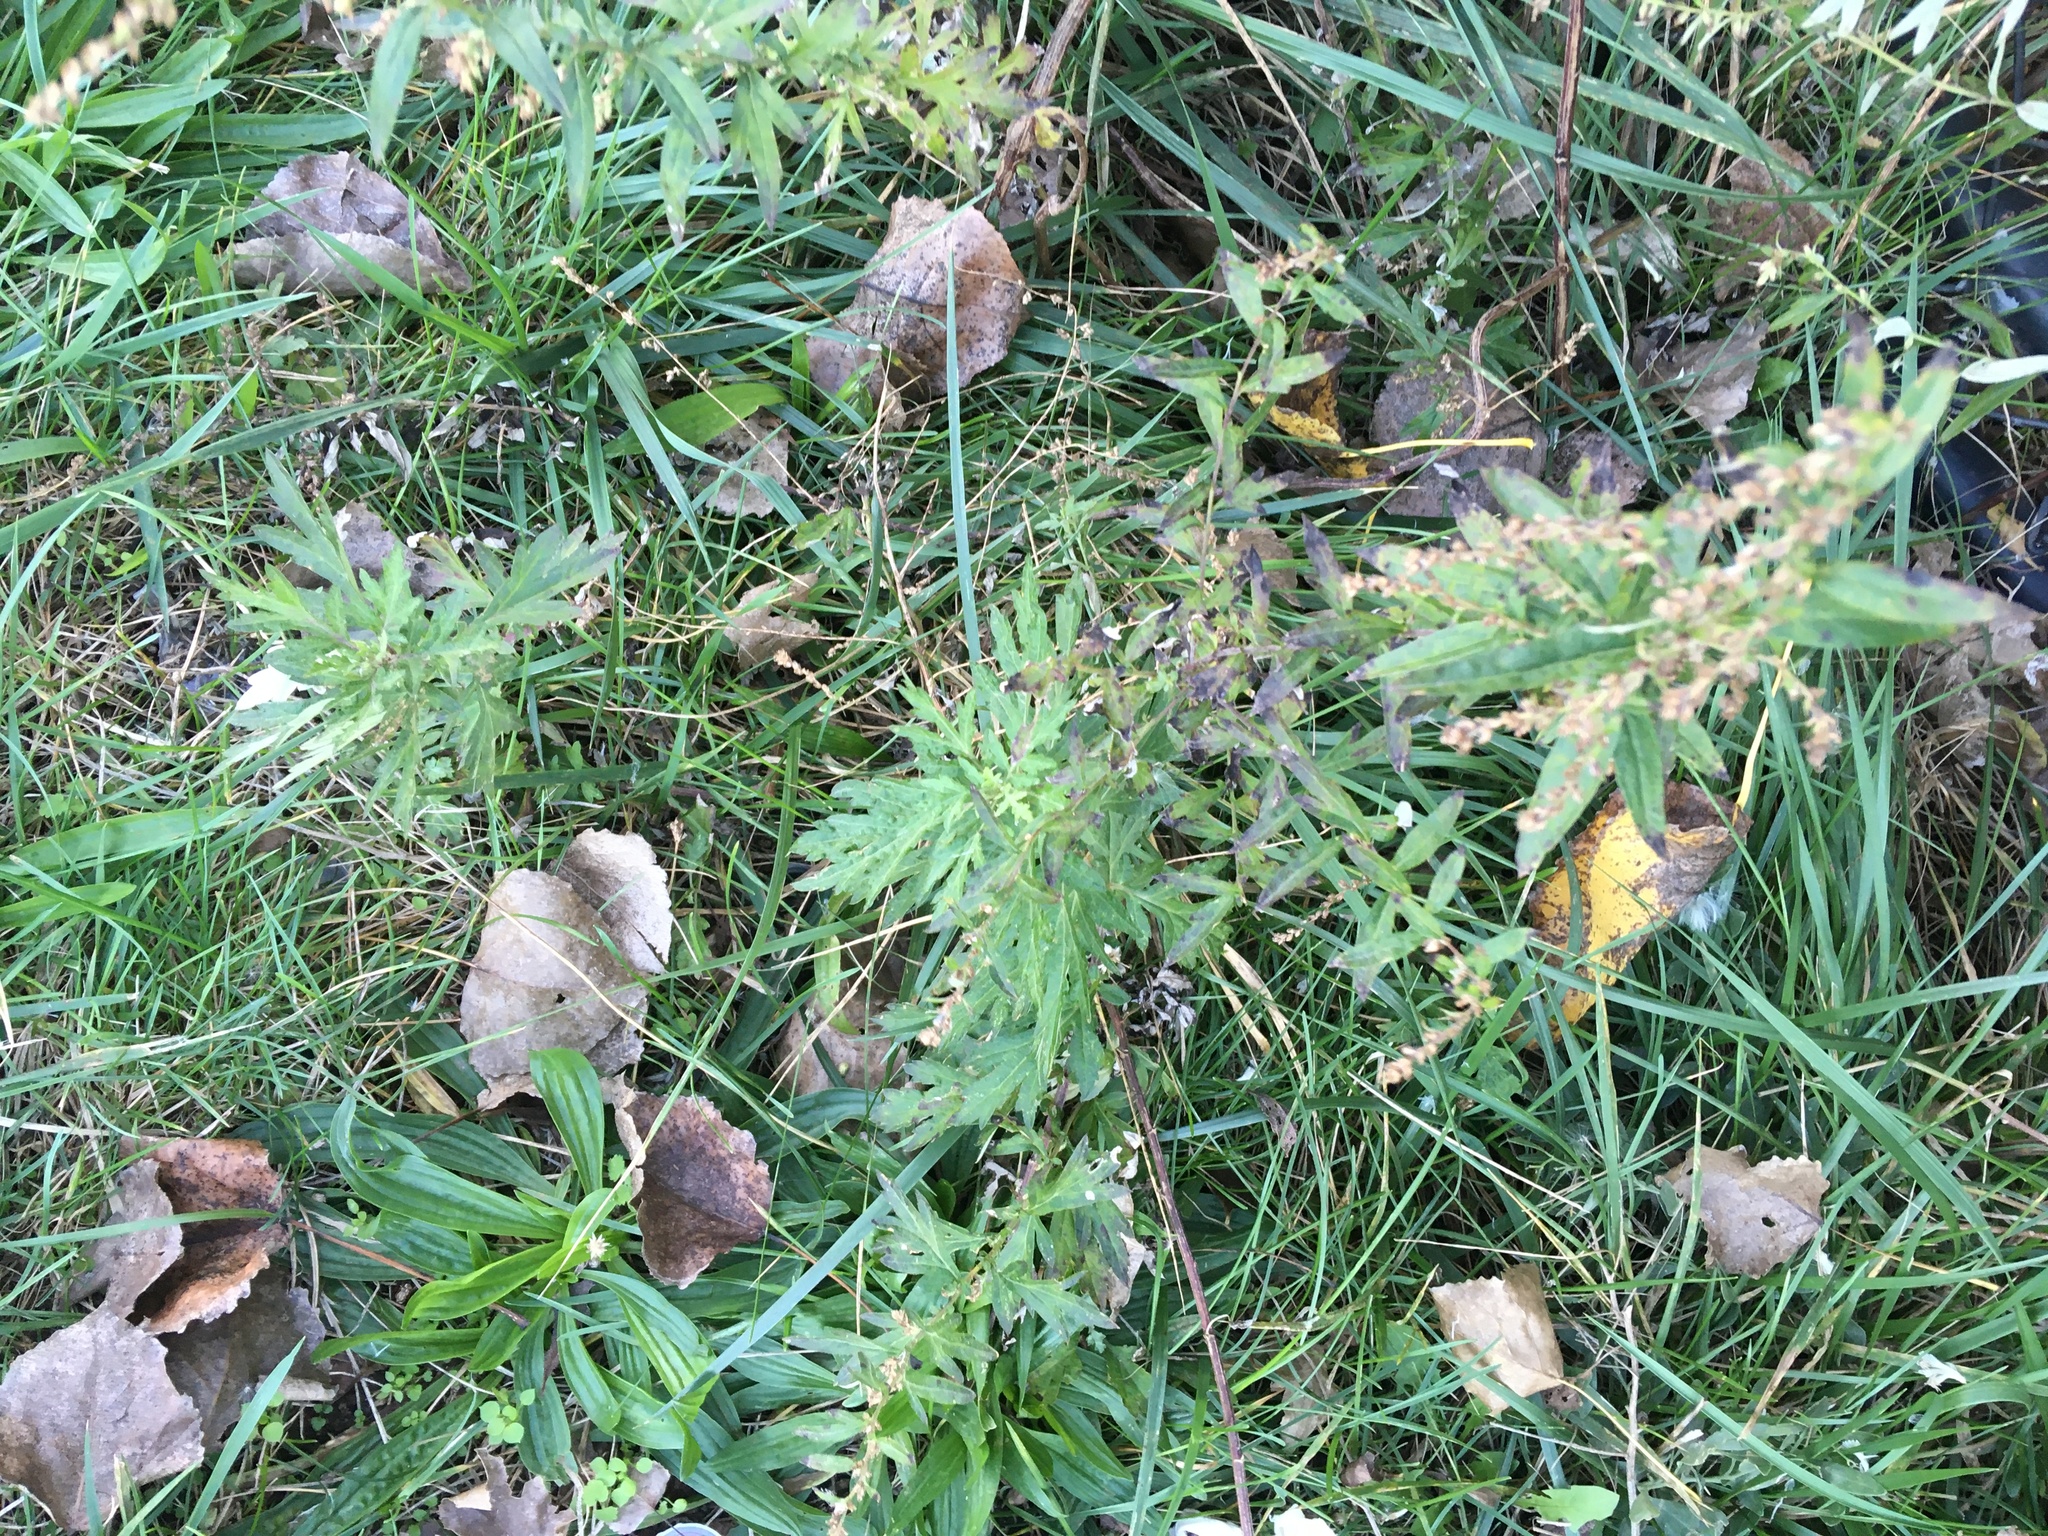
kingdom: Plantae
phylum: Tracheophyta
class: Magnoliopsida
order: Asterales
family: Asteraceae
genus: Artemisia
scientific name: Artemisia vulgaris
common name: Mugwort
